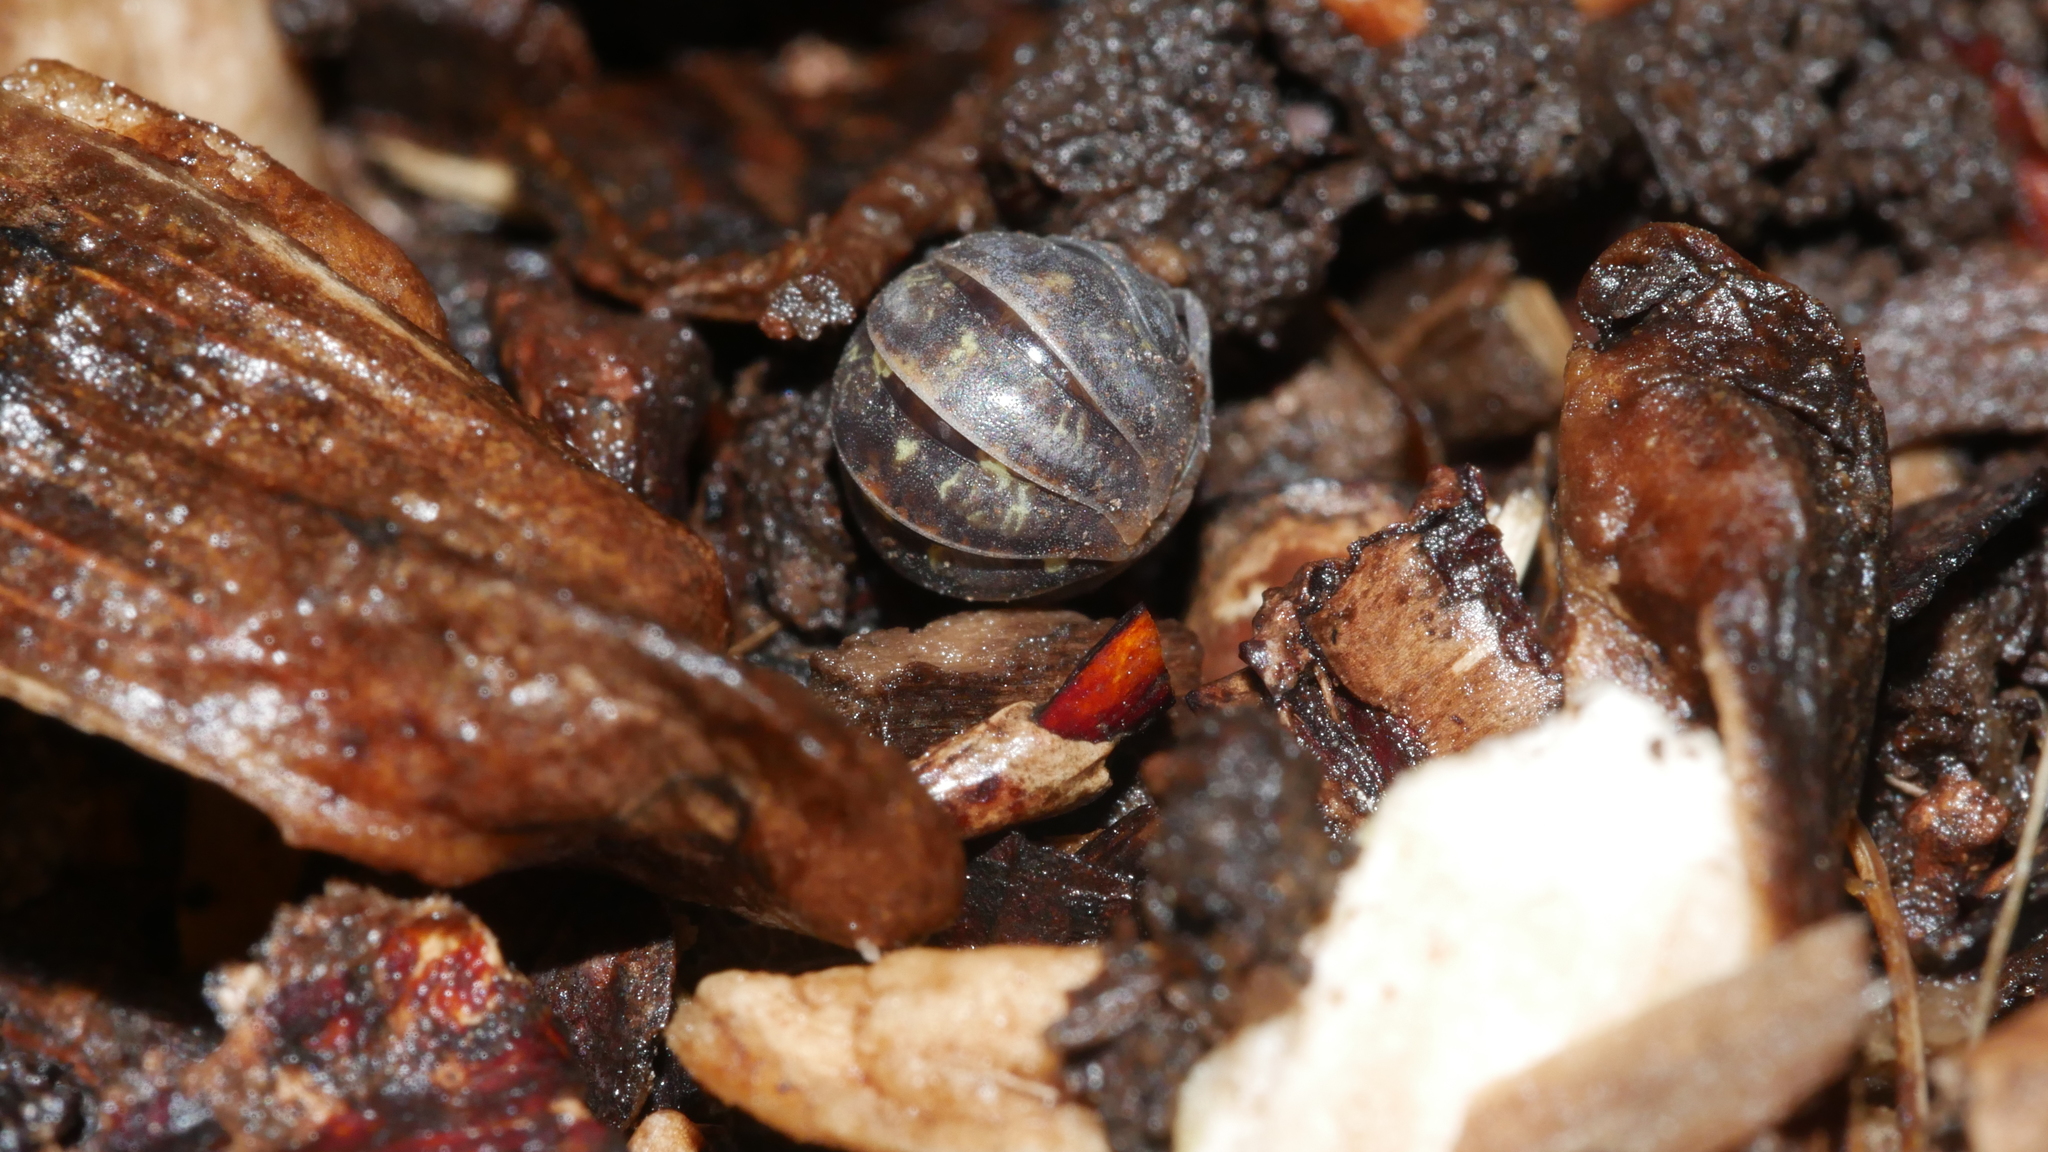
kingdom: Animalia
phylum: Arthropoda
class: Malacostraca
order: Isopoda
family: Armadillidiidae
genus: Armadillidium
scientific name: Armadillidium vulgare
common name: Common pill woodlouse
